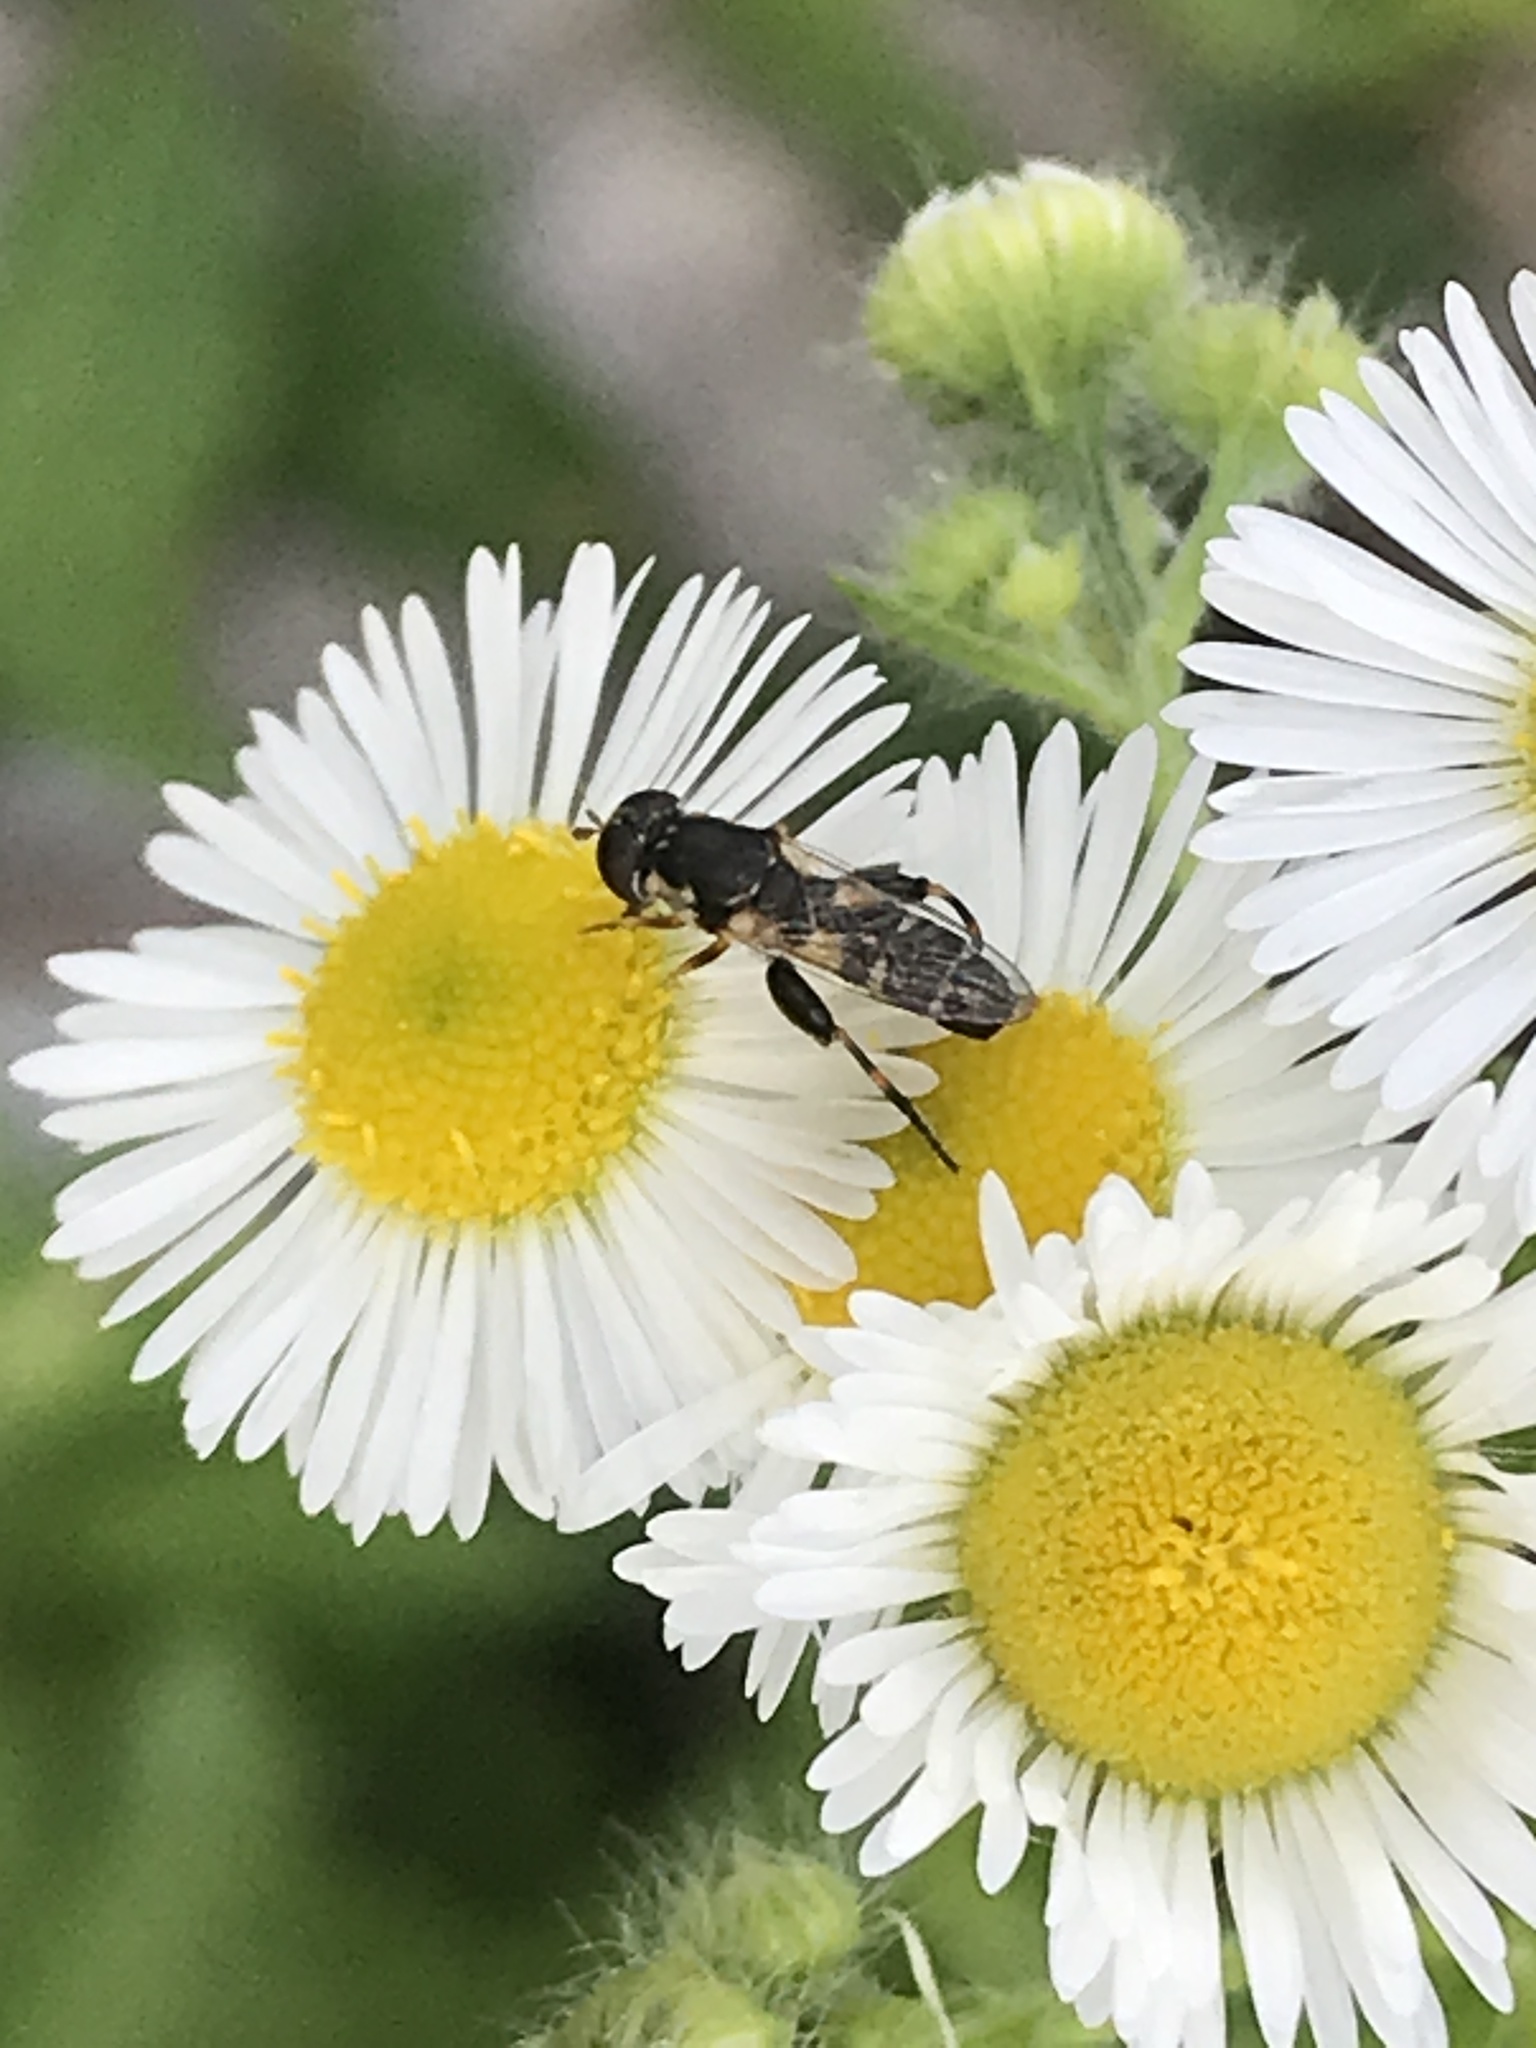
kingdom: Animalia
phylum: Arthropoda
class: Insecta
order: Diptera
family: Syrphidae
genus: Syritta
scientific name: Syritta pipiens
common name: Hover fly
